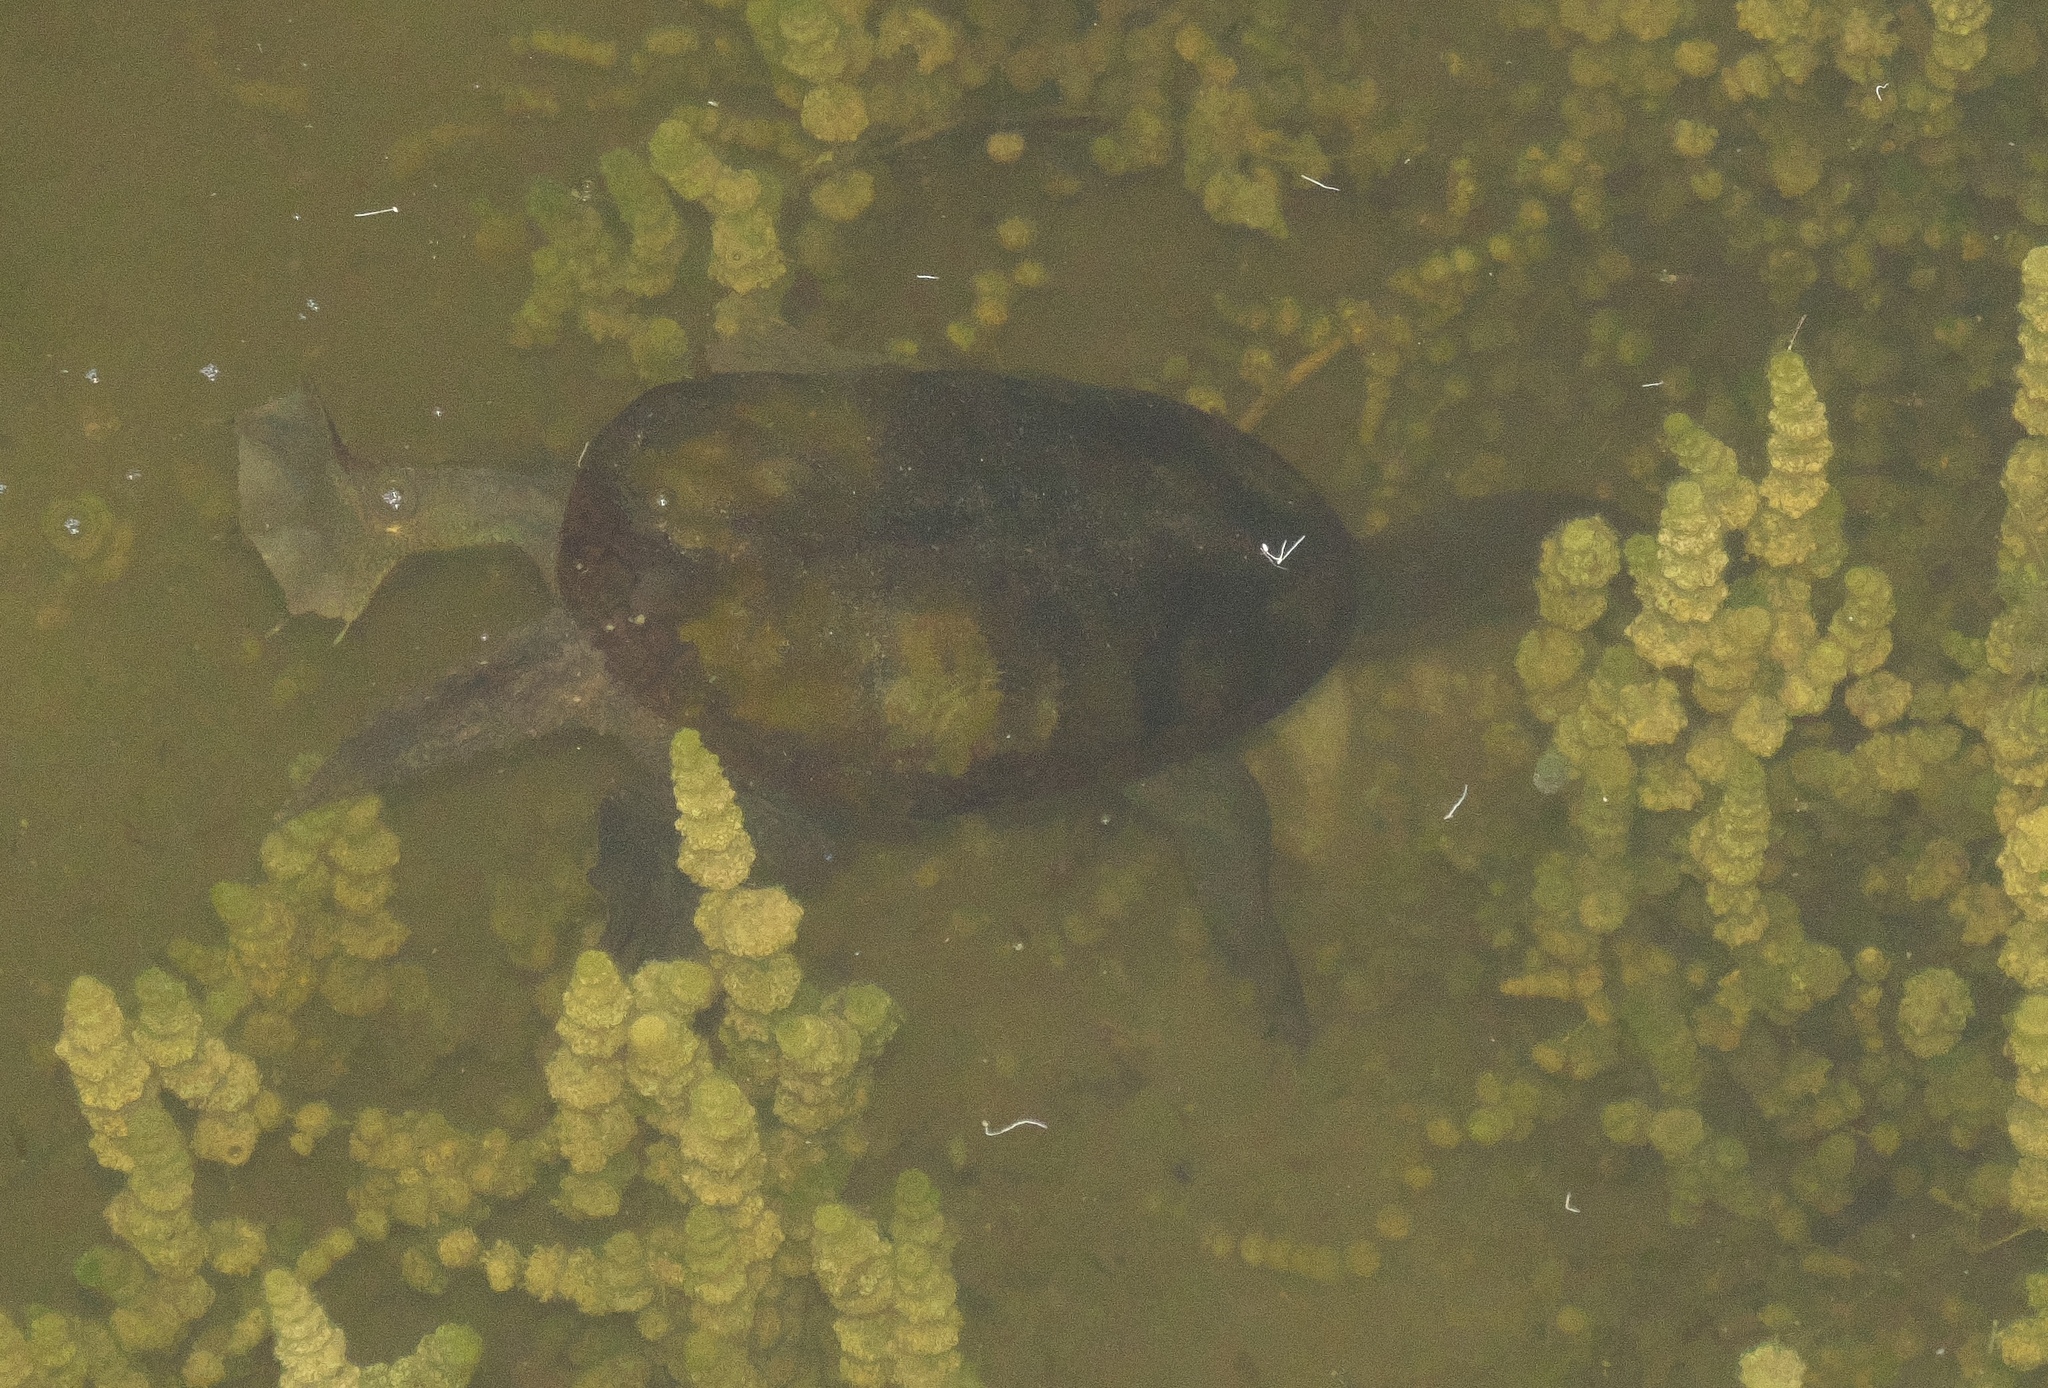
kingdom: Animalia
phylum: Chordata
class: Testudines
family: Chelidae
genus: Chelodina
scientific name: Chelodina oblonga
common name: Northern snake-necked turtle
